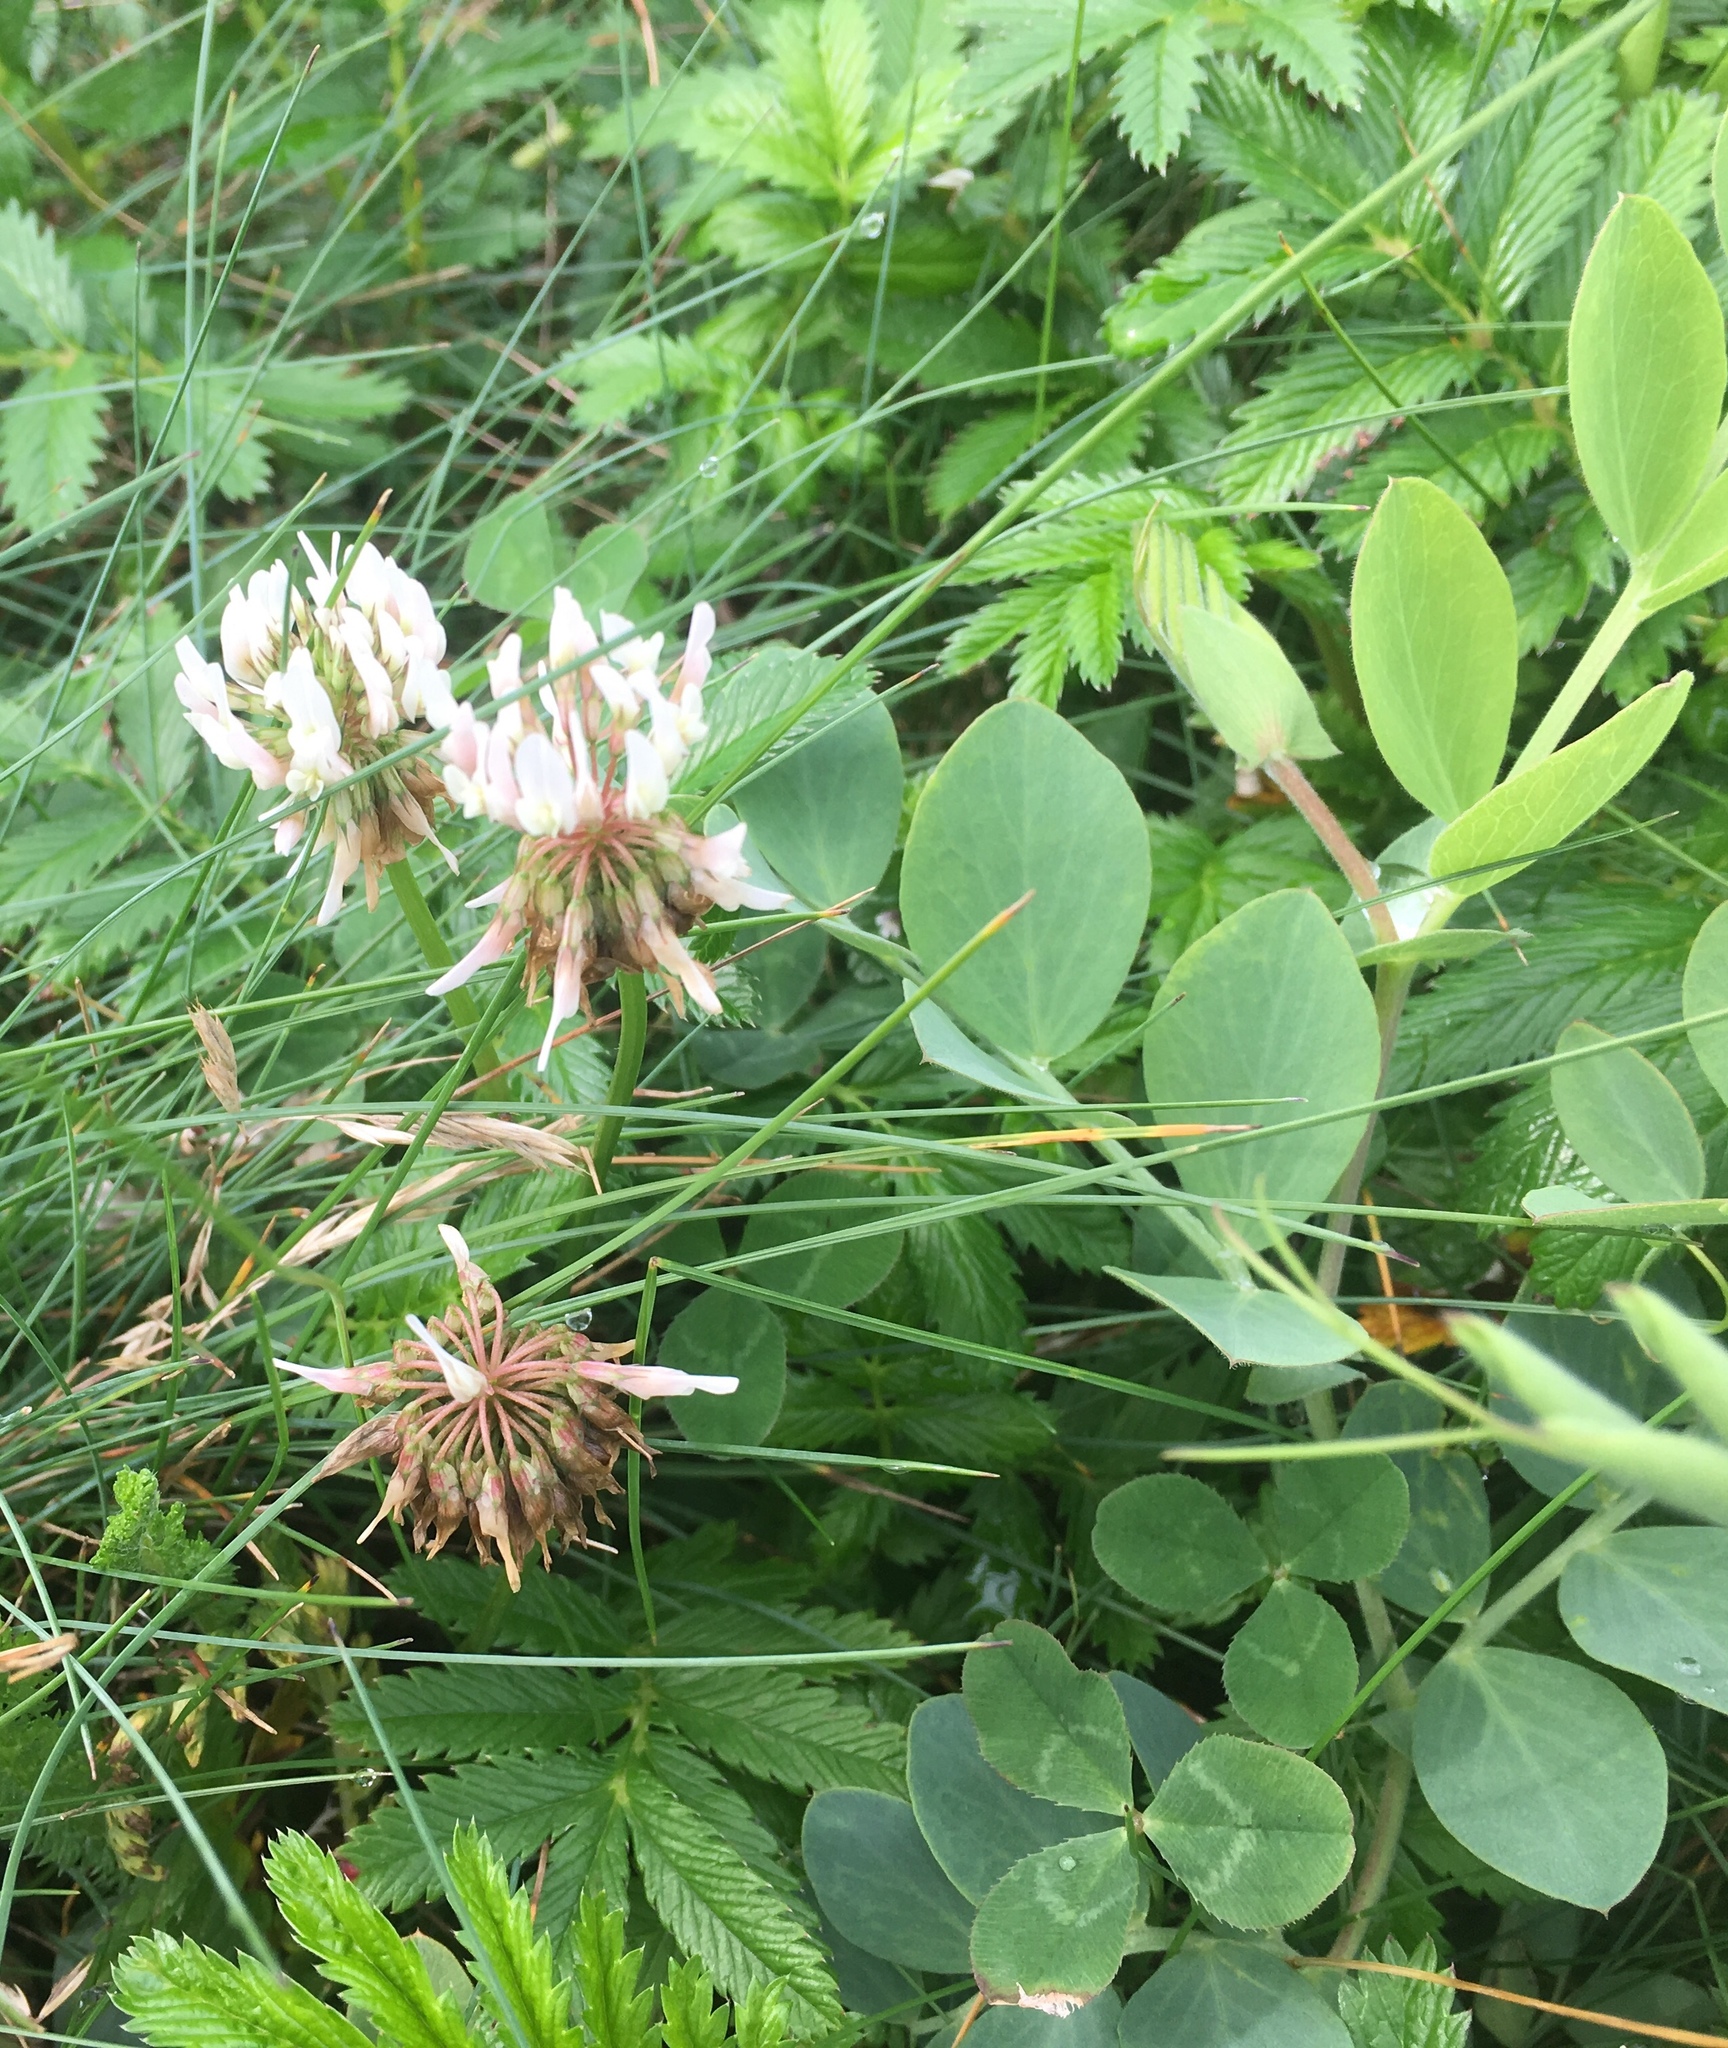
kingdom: Plantae
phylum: Tracheophyta
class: Magnoliopsida
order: Fabales
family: Fabaceae
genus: Trifolium
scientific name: Trifolium repens
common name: White clover
